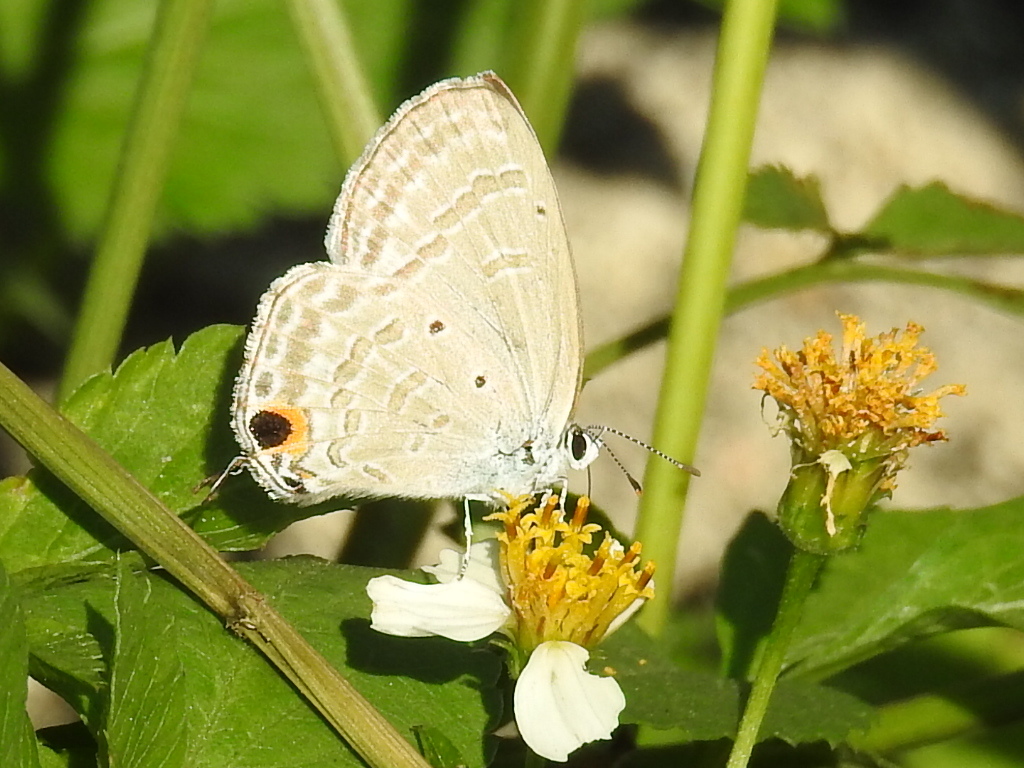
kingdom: Animalia
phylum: Arthropoda
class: Insecta
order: Lepidoptera
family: Lycaenidae
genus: Catochrysops
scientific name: Catochrysops strabo
